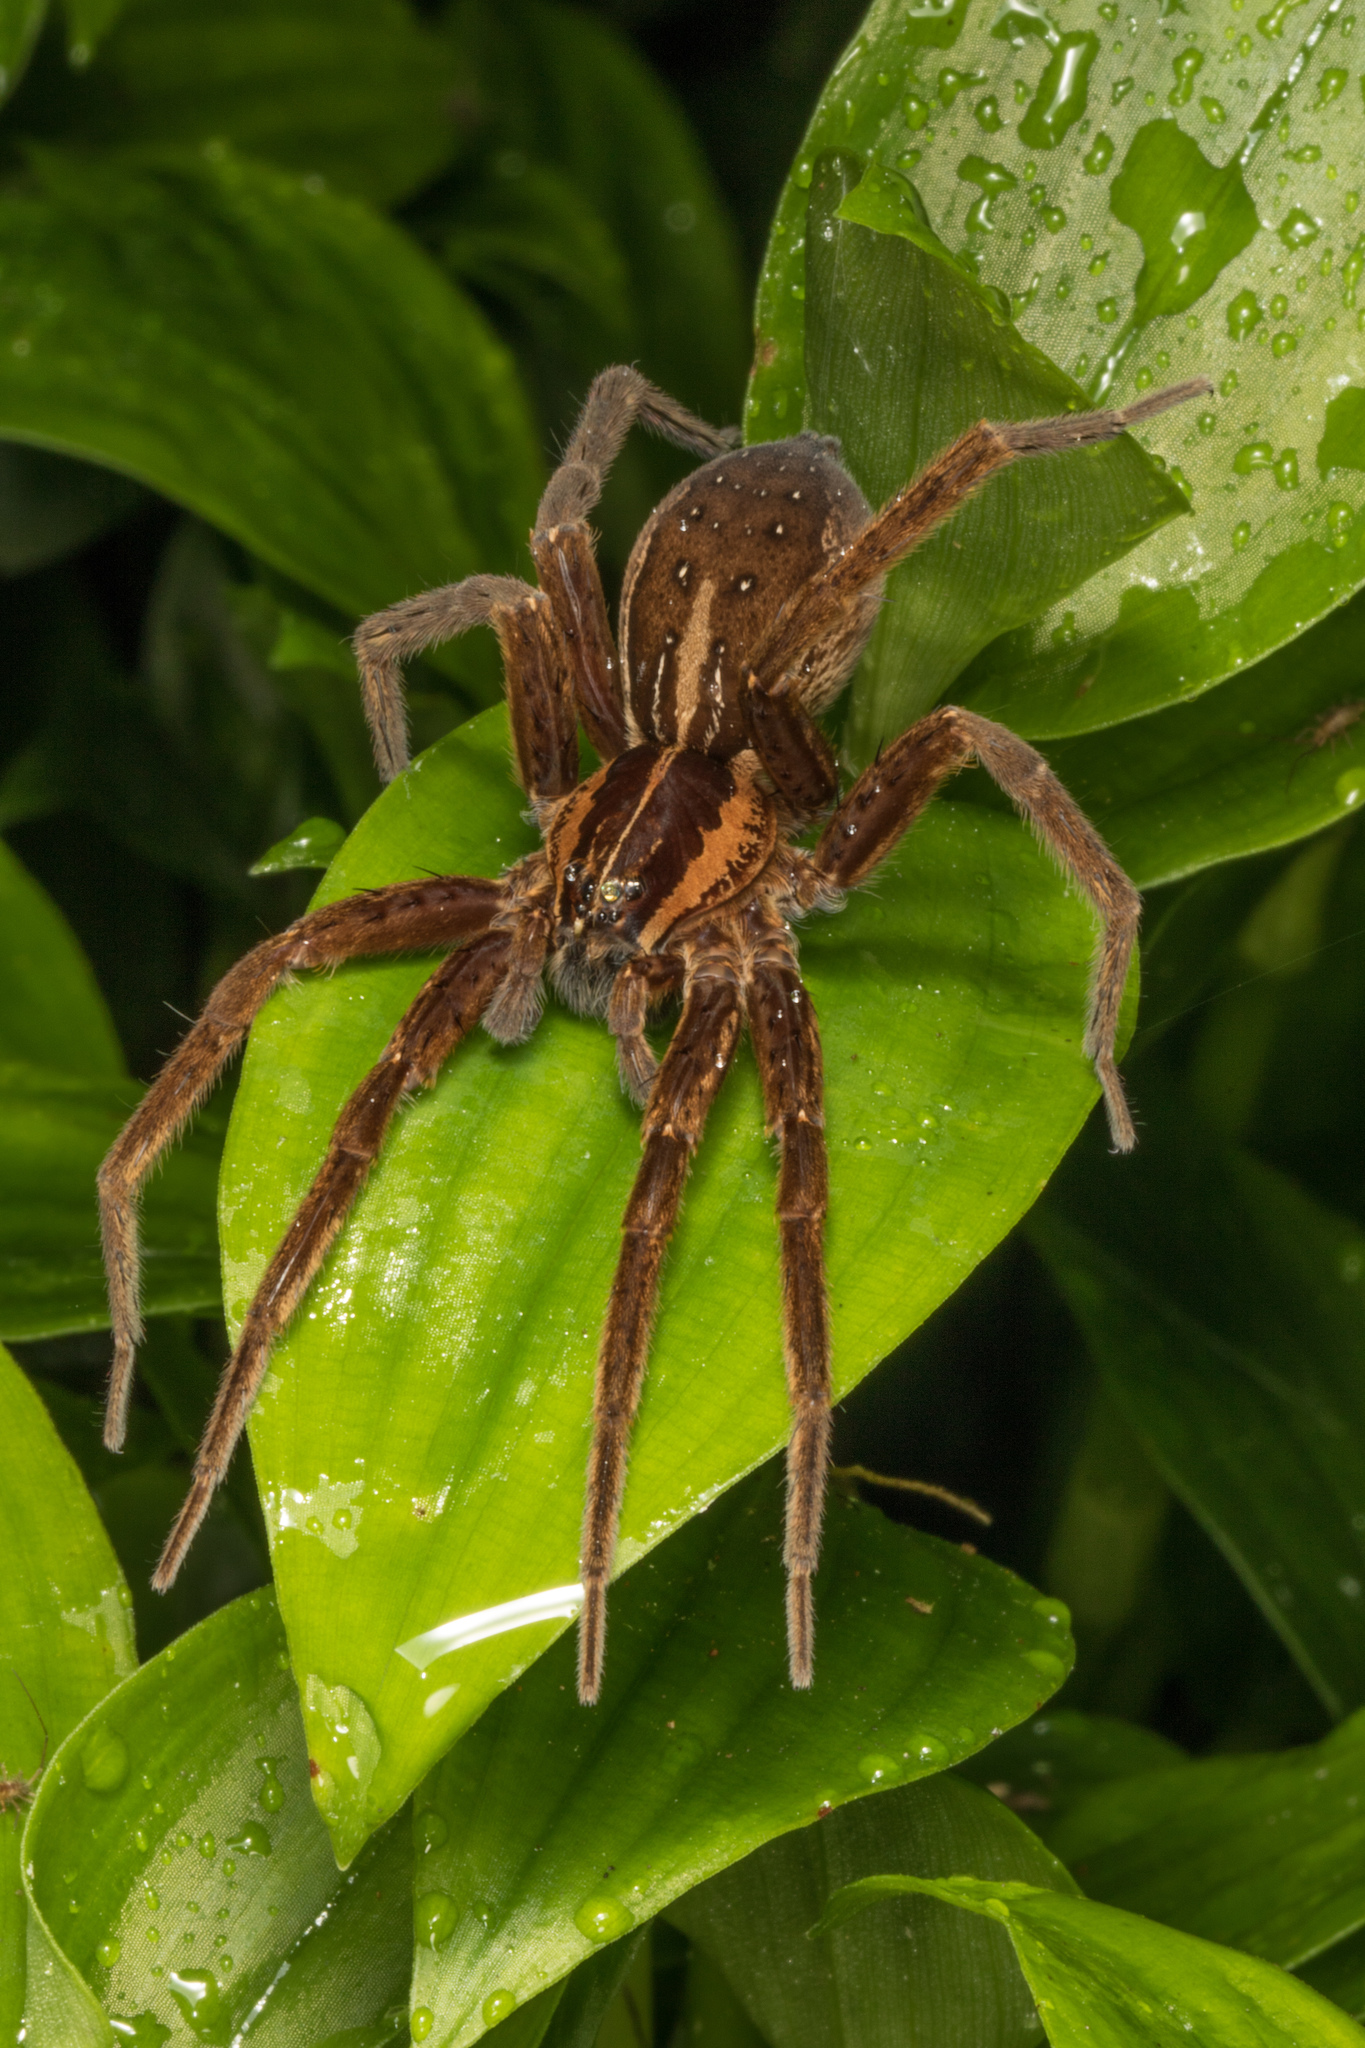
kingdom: Animalia
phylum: Arthropoda
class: Arachnida
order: Araneae
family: Pisauridae
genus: Dolomedes
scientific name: Dolomedes minor
